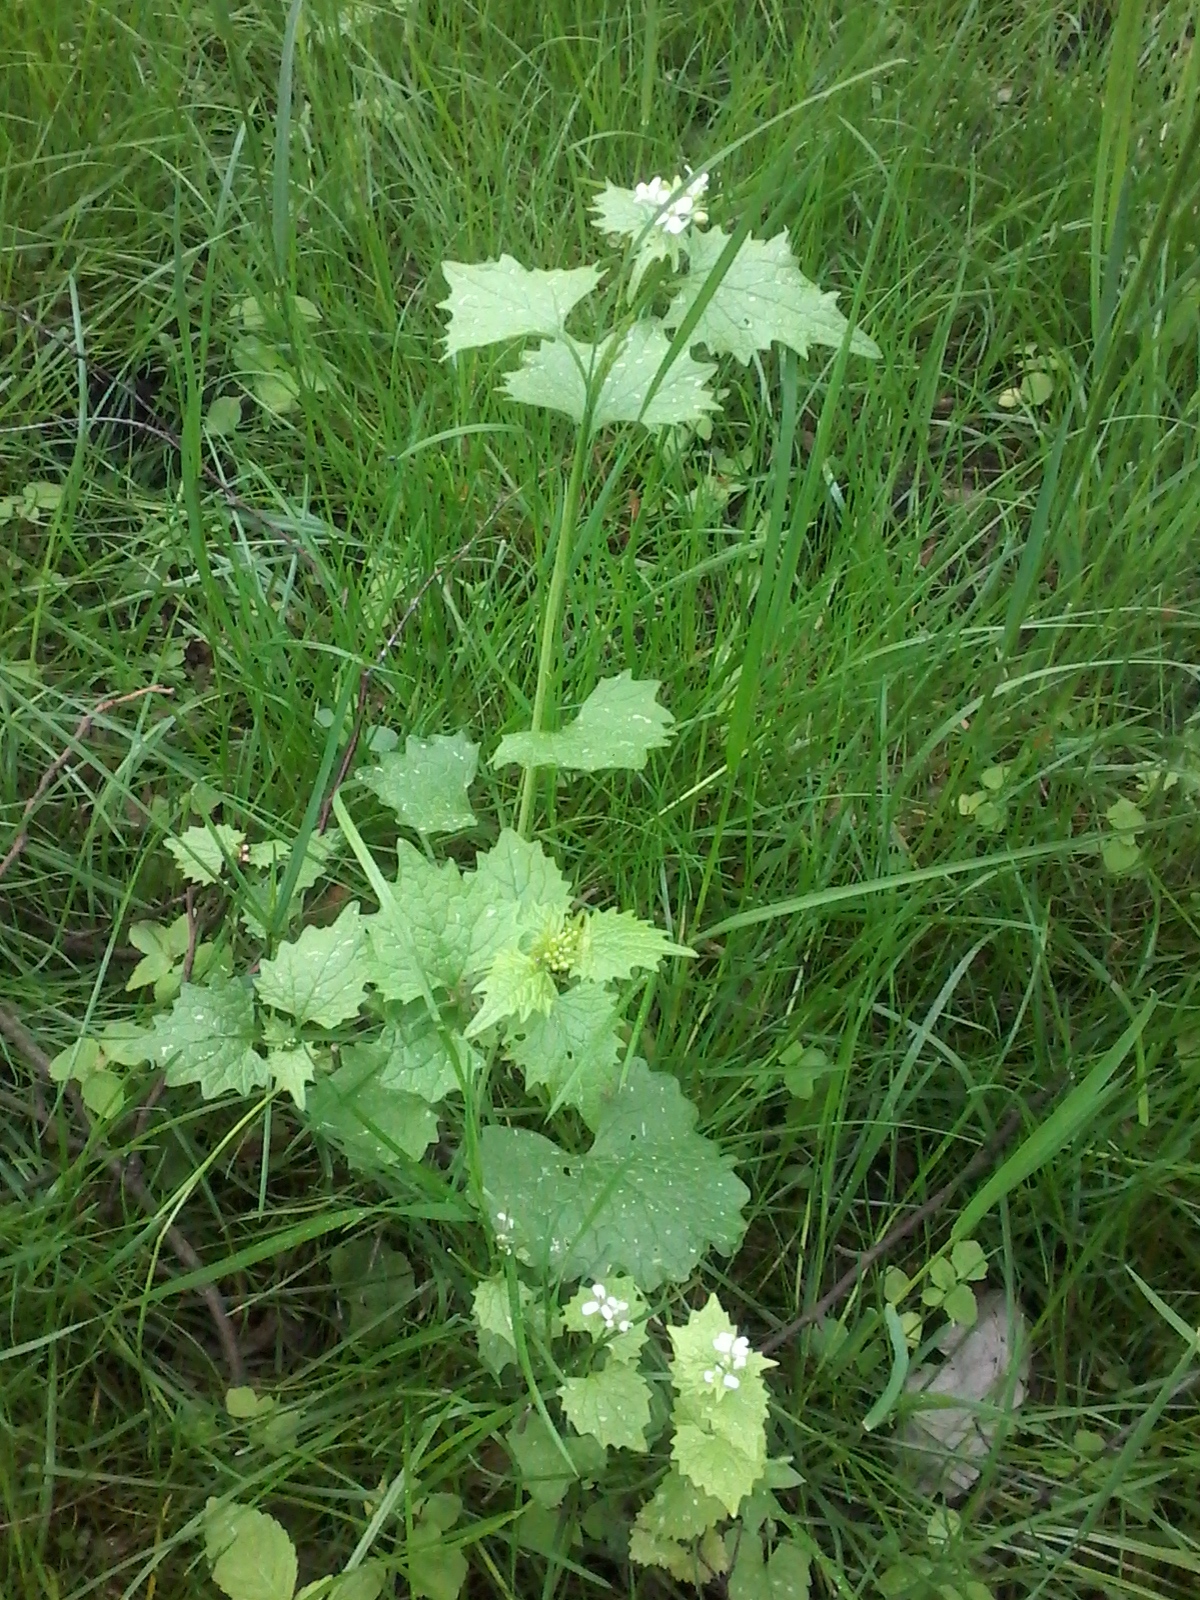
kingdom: Plantae
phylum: Tracheophyta
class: Magnoliopsida
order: Brassicales
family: Brassicaceae
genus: Alliaria
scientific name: Alliaria petiolata
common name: Garlic mustard
